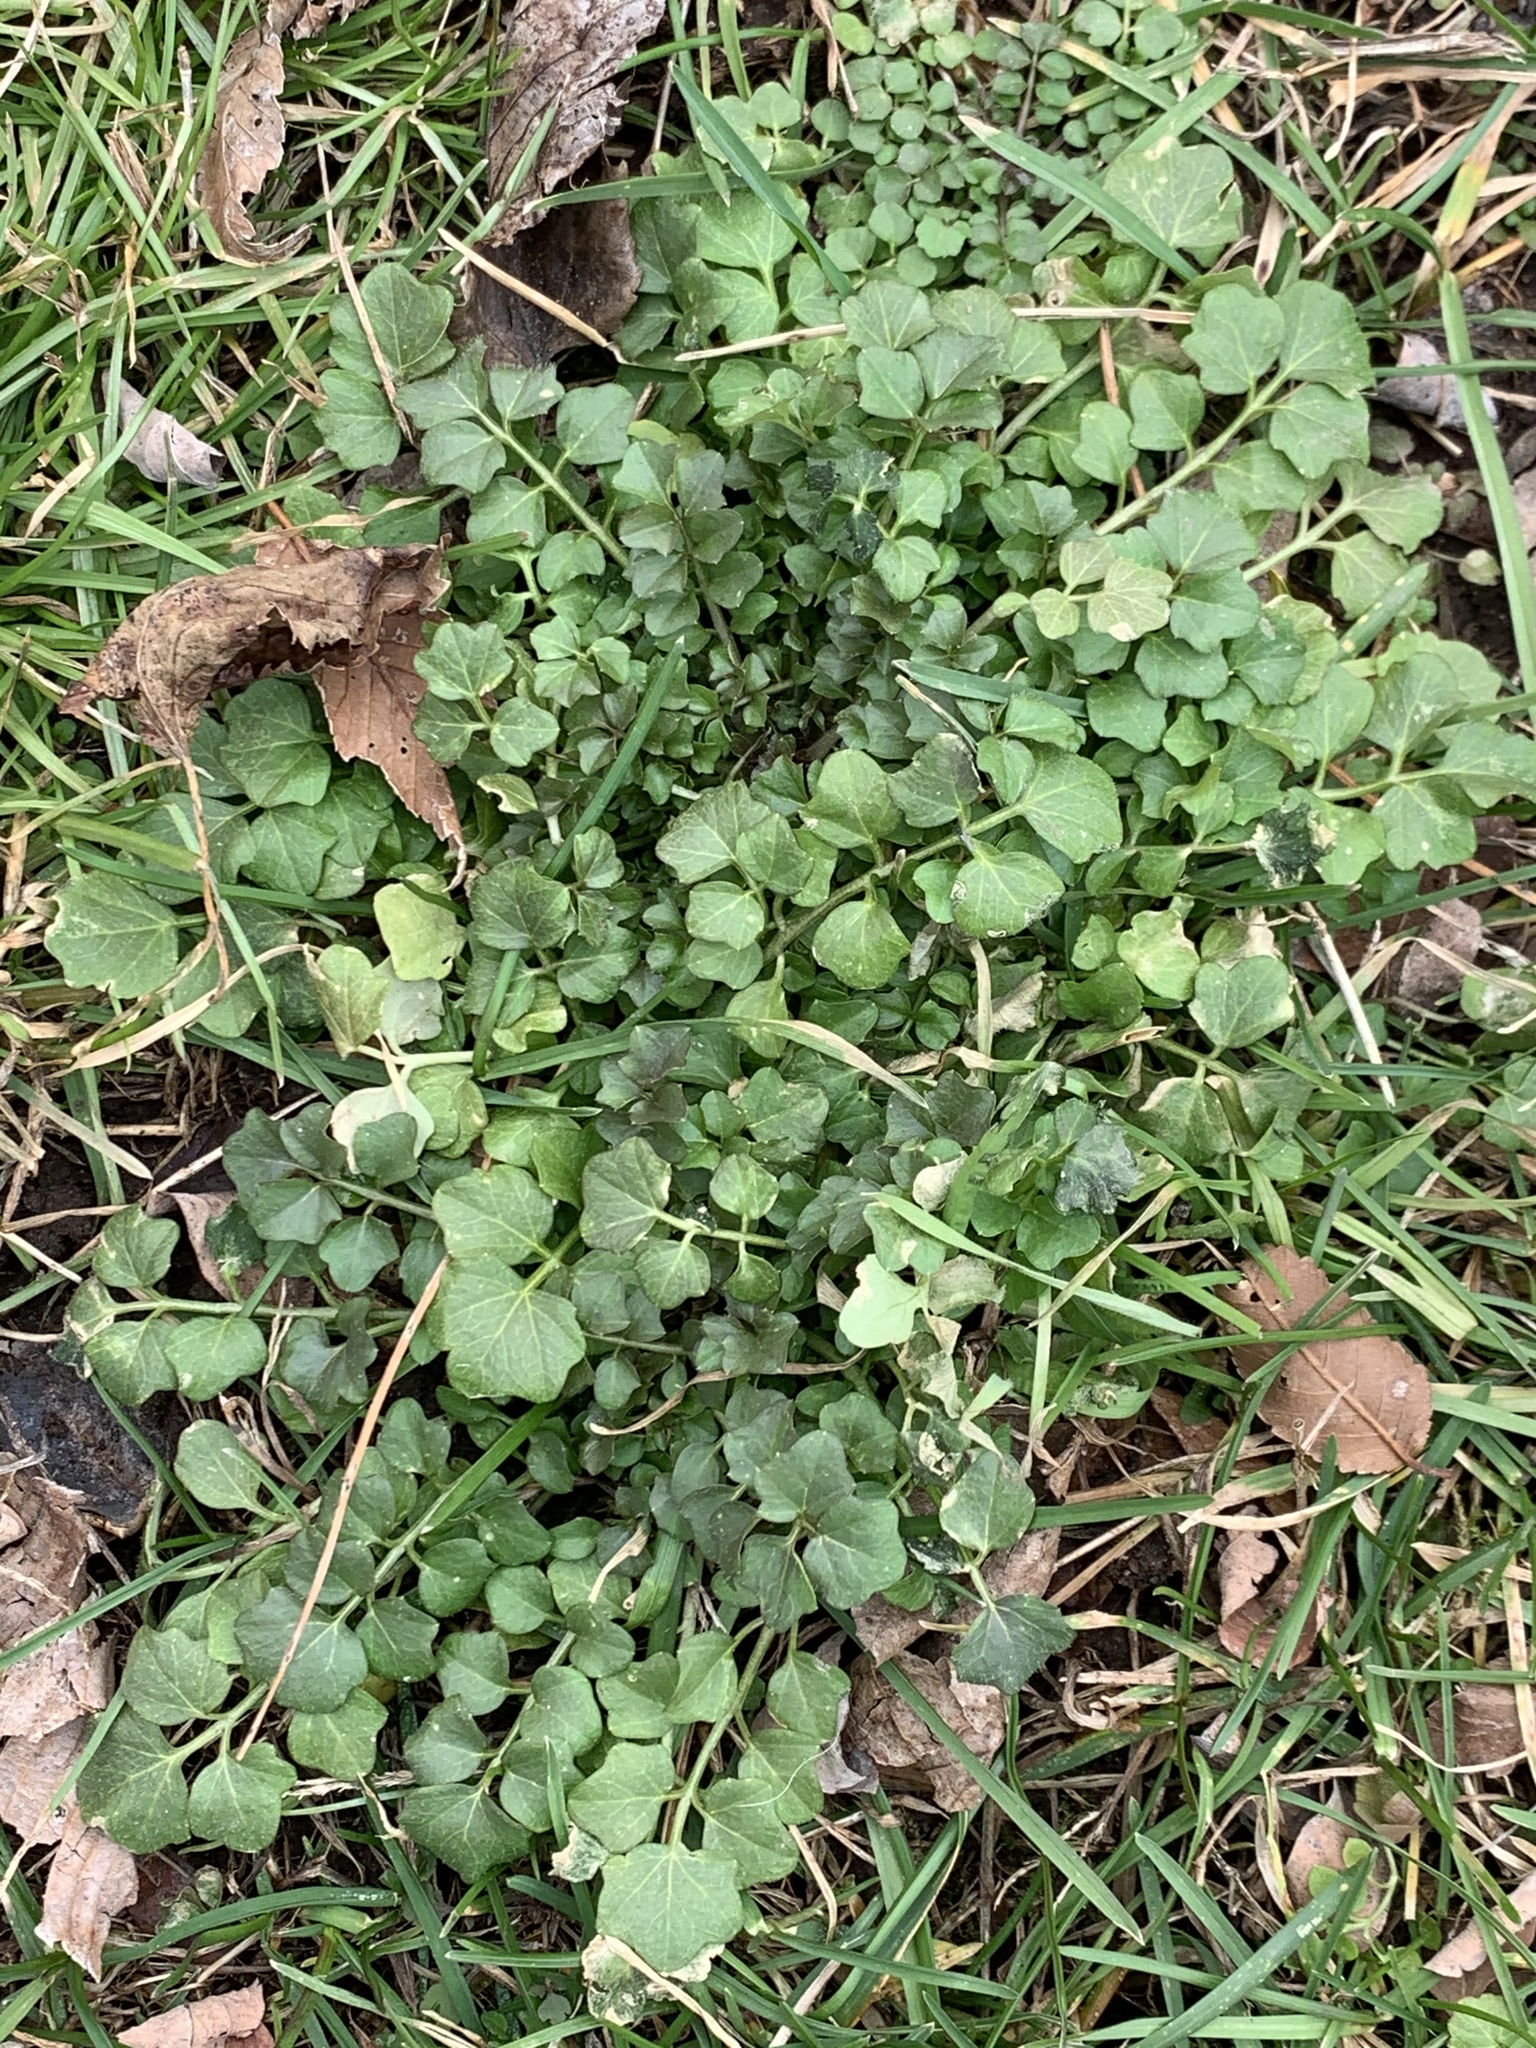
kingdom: Plantae
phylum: Tracheophyta
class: Magnoliopsida
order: Brassicales
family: Brassicaceae
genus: Cardamine
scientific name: Cardamine hirsuta
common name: Hairy bittercress
